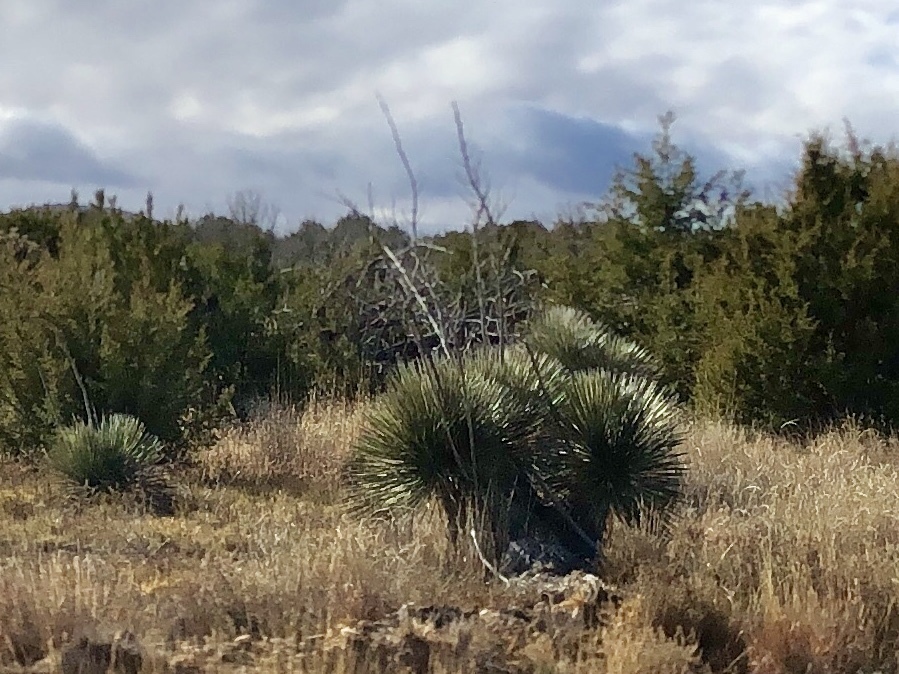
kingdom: Plantae
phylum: Tracheophyta
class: Liliopsida
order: Asparagales
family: Asparagaceae
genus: Yucca
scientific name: Yucca elata
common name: Palmella
